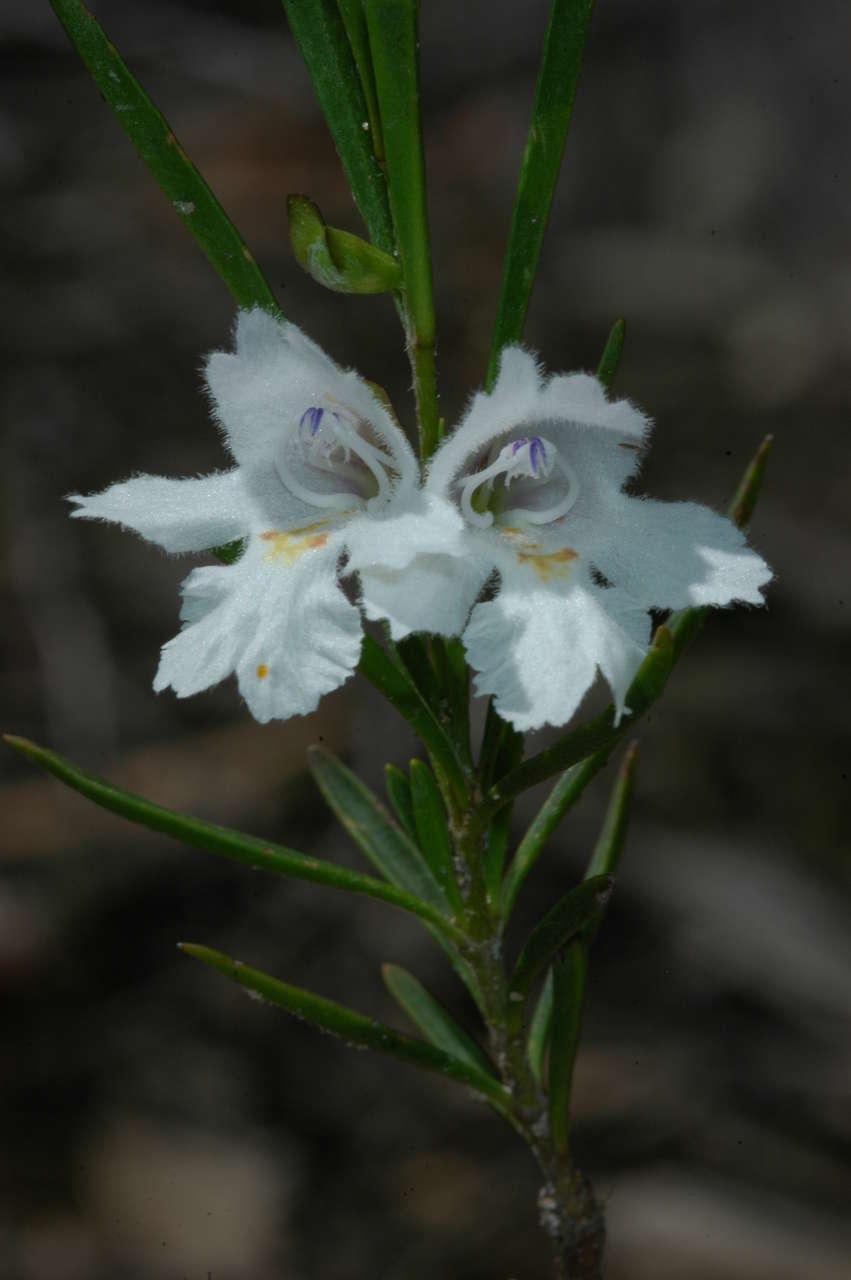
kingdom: Plantae
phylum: Tracheophyta
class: Magnoliopsida
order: Lamiales
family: Lamiaceae
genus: Prostanthera
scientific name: Prostanthera nivea
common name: Snowy mintbush
